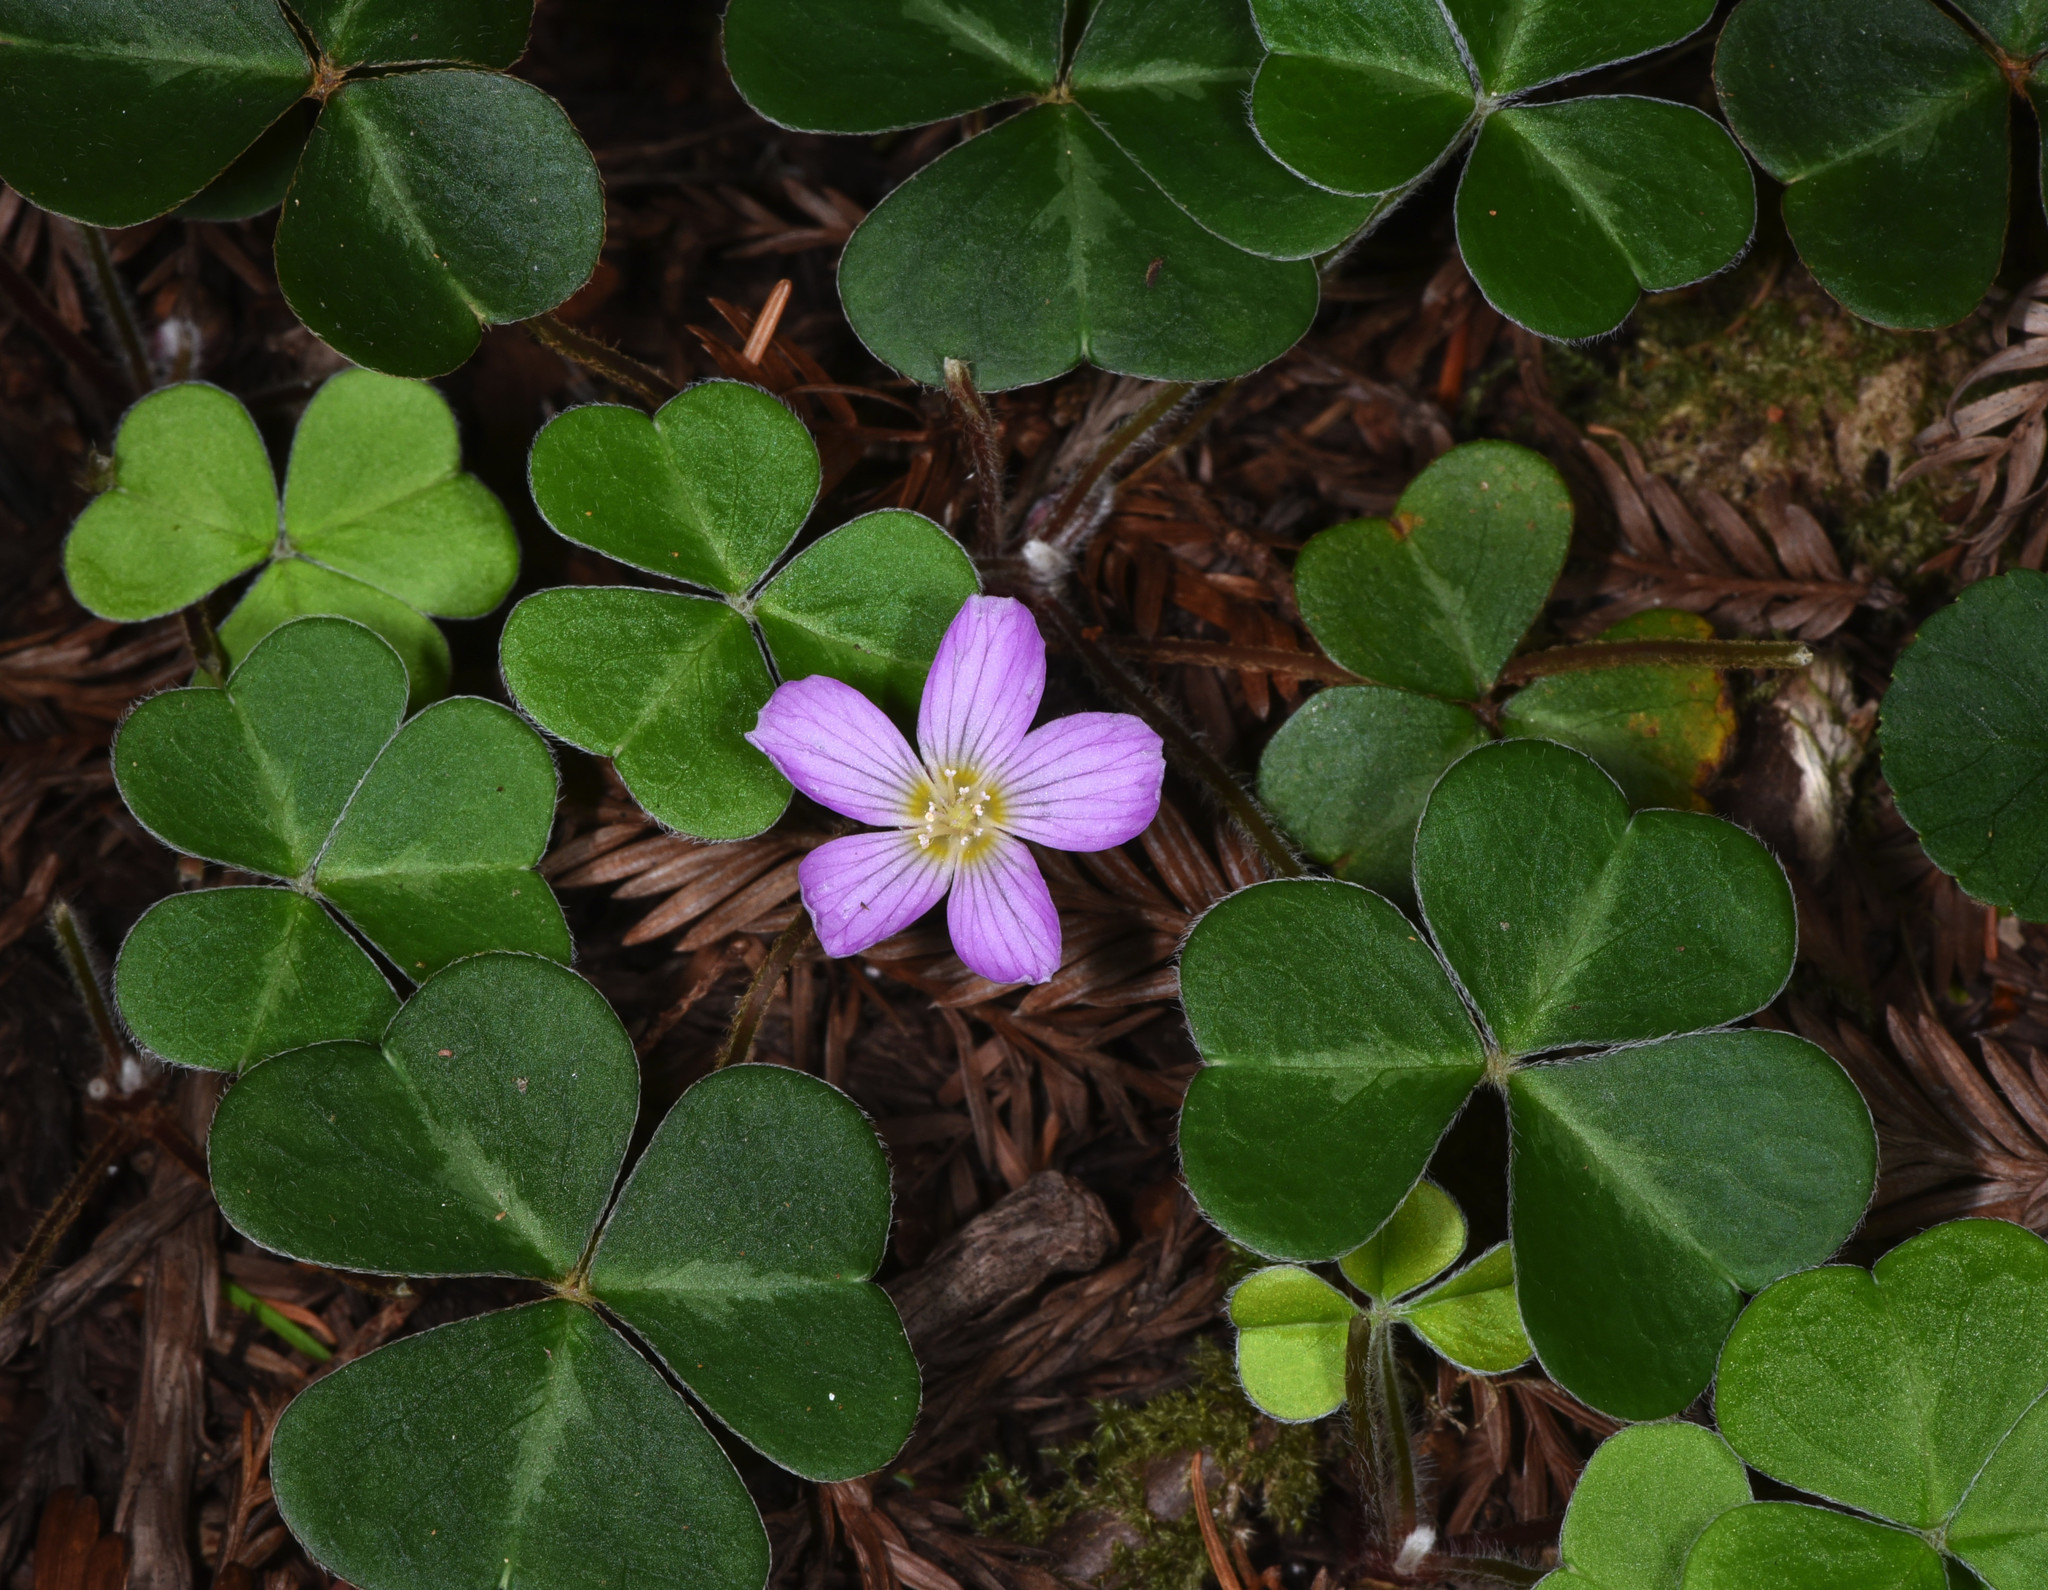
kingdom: Plantae
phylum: Tracheophyta
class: Magnoliopsida
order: Oxalidales
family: Oxalidaceae
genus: Oxalis
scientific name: Oxalis oregana
